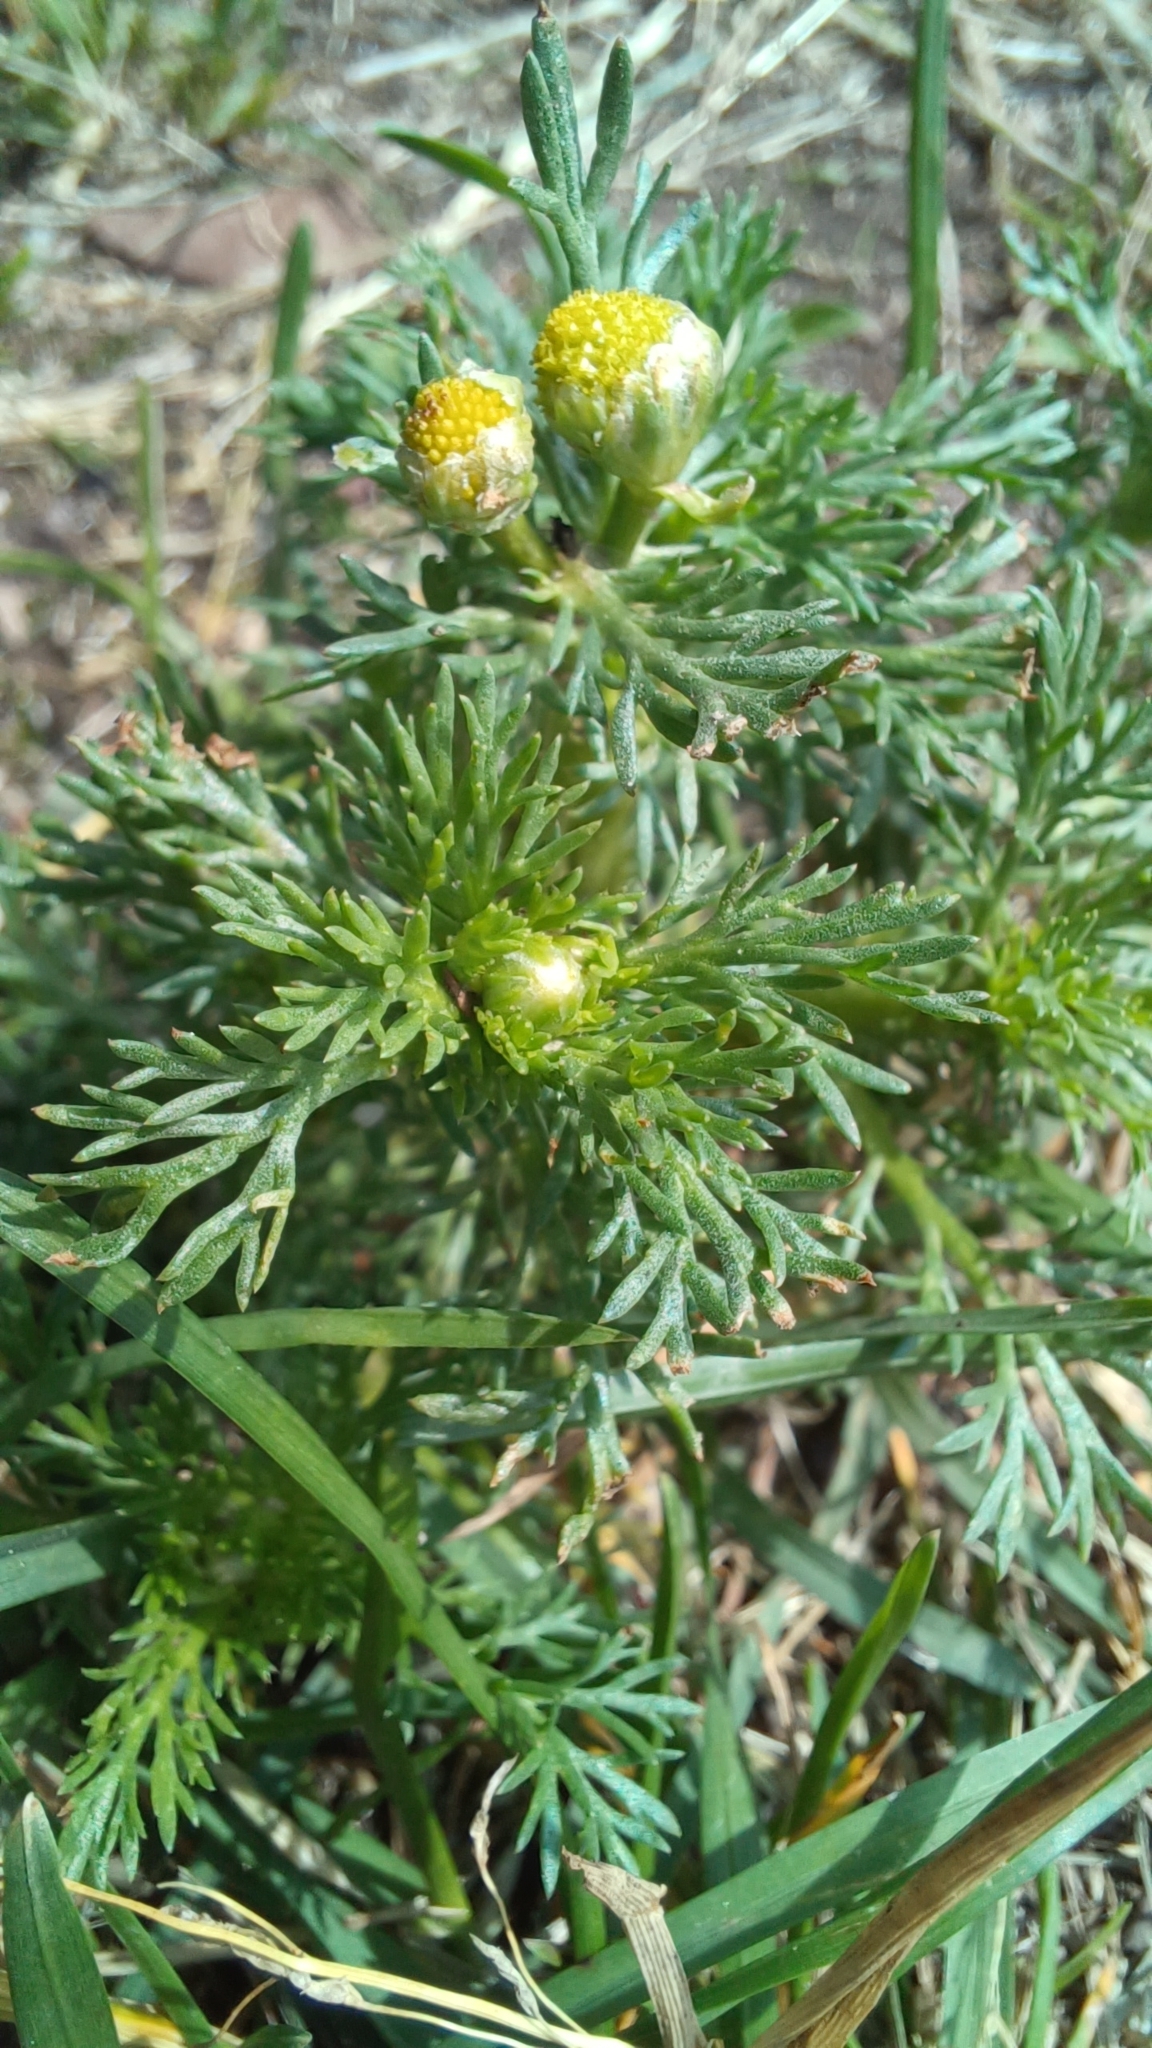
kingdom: Plantae
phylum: Tracheophyta
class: Magnoliopsida
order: Asterales
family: Asteraceae
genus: Matricaria
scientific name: Matricaria discoidea
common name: Disc mayweed
